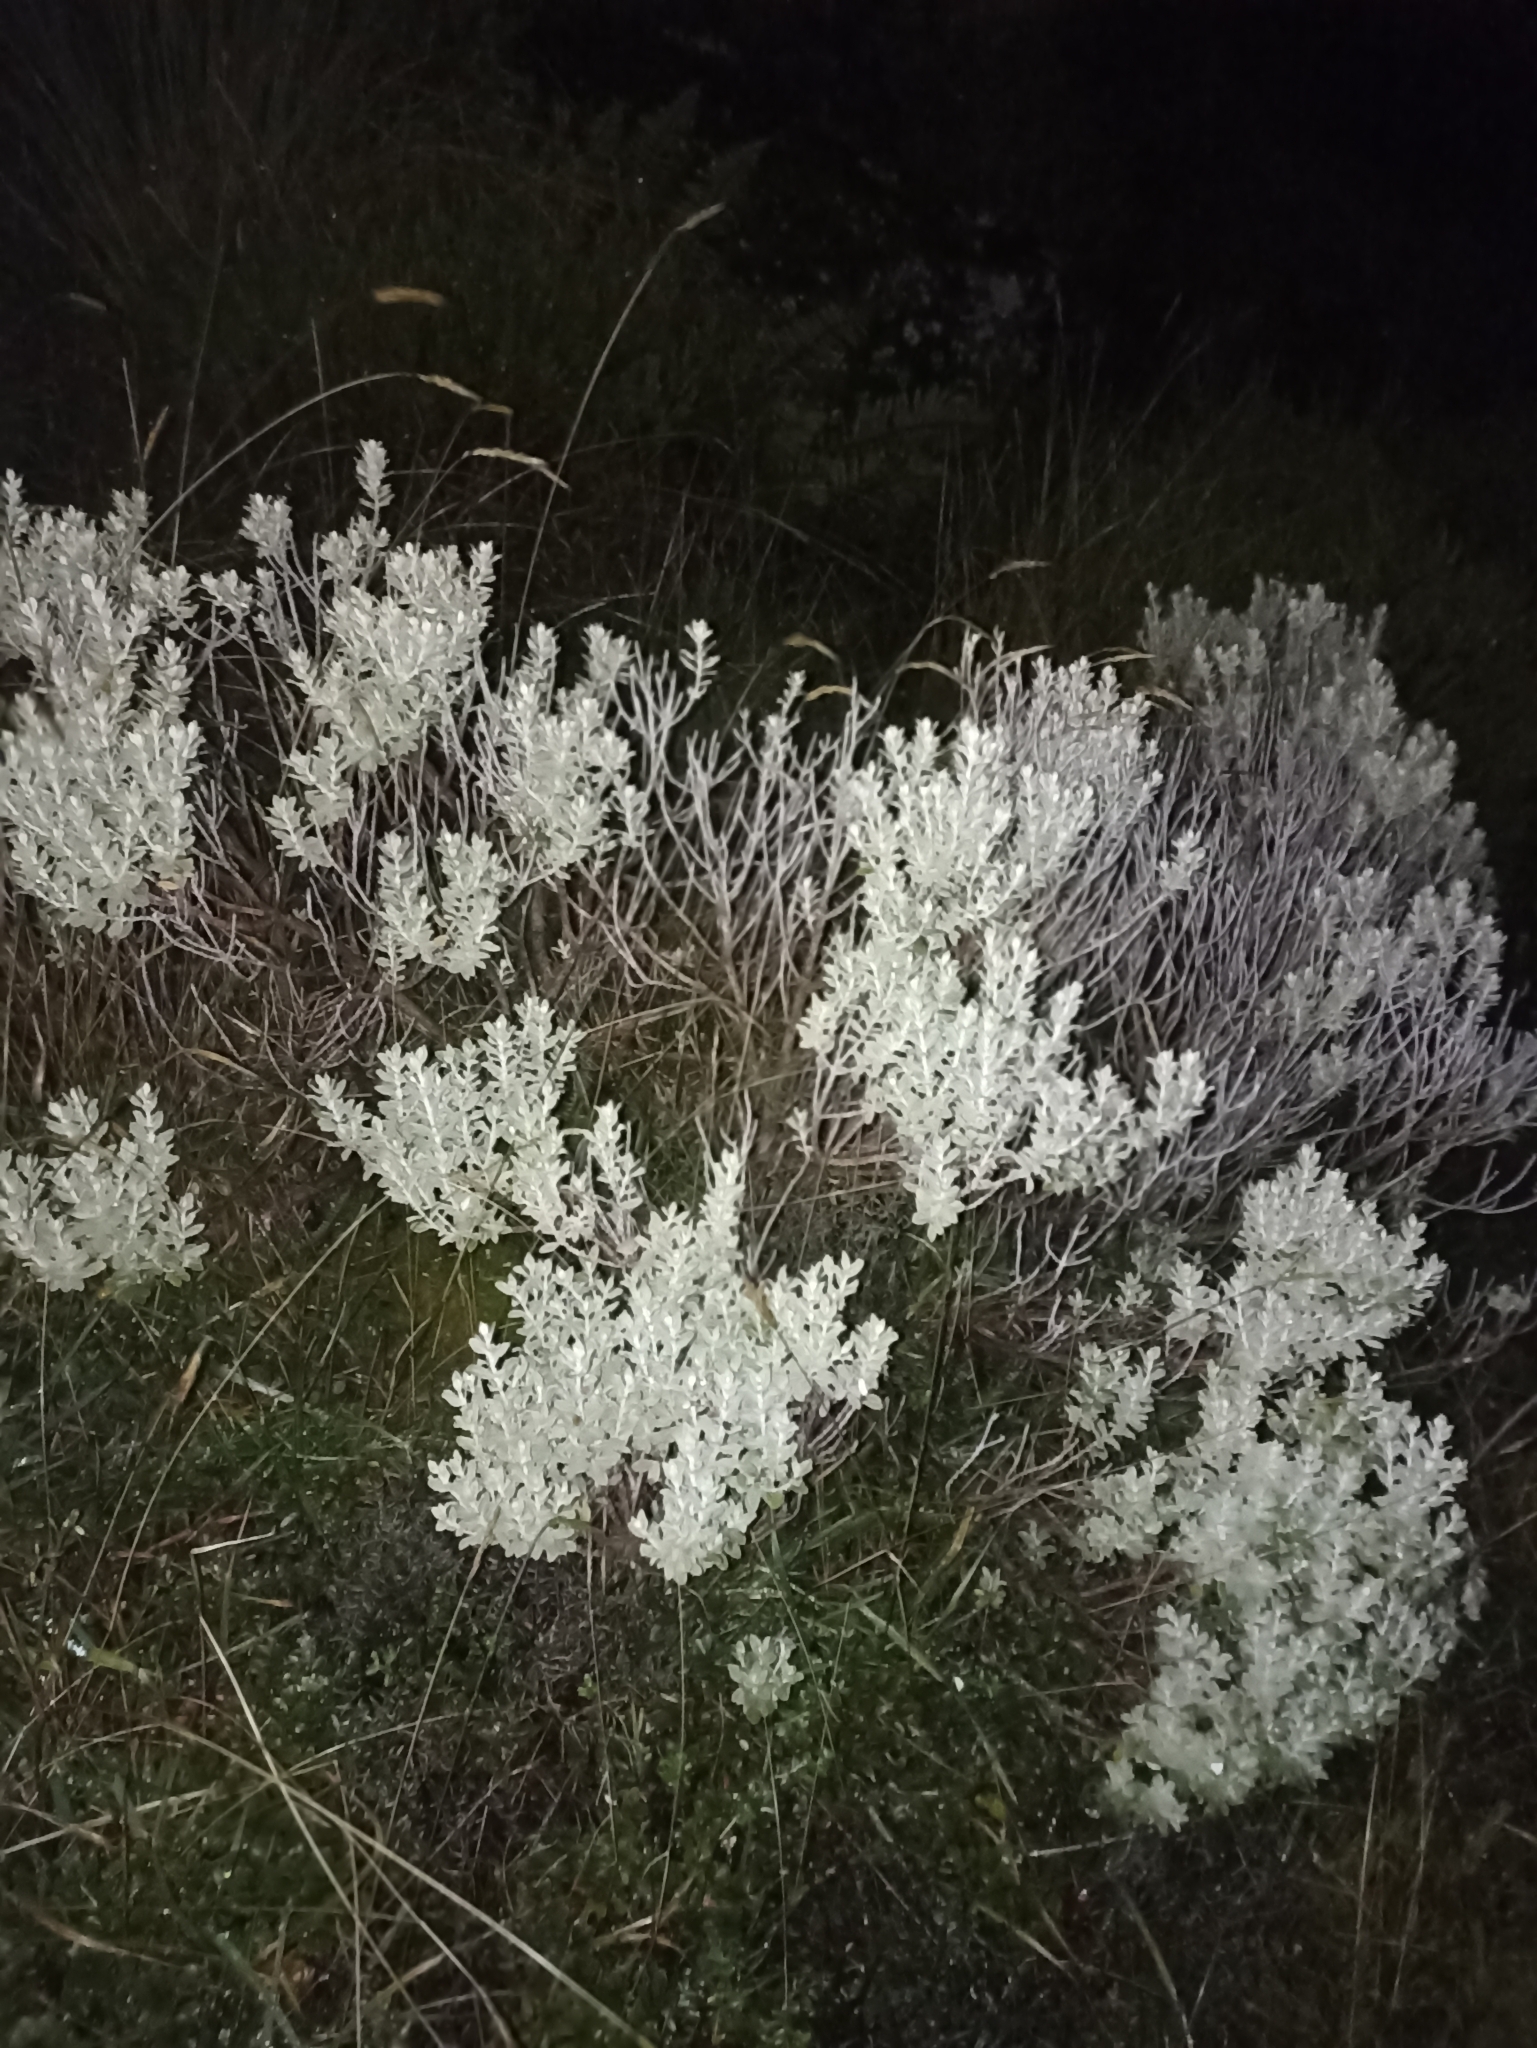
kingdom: Plantae
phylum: Tracheophyta
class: Magnoliopsida
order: Asterales
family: Asteraceae
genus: Olearia
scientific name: Olearia moschata
